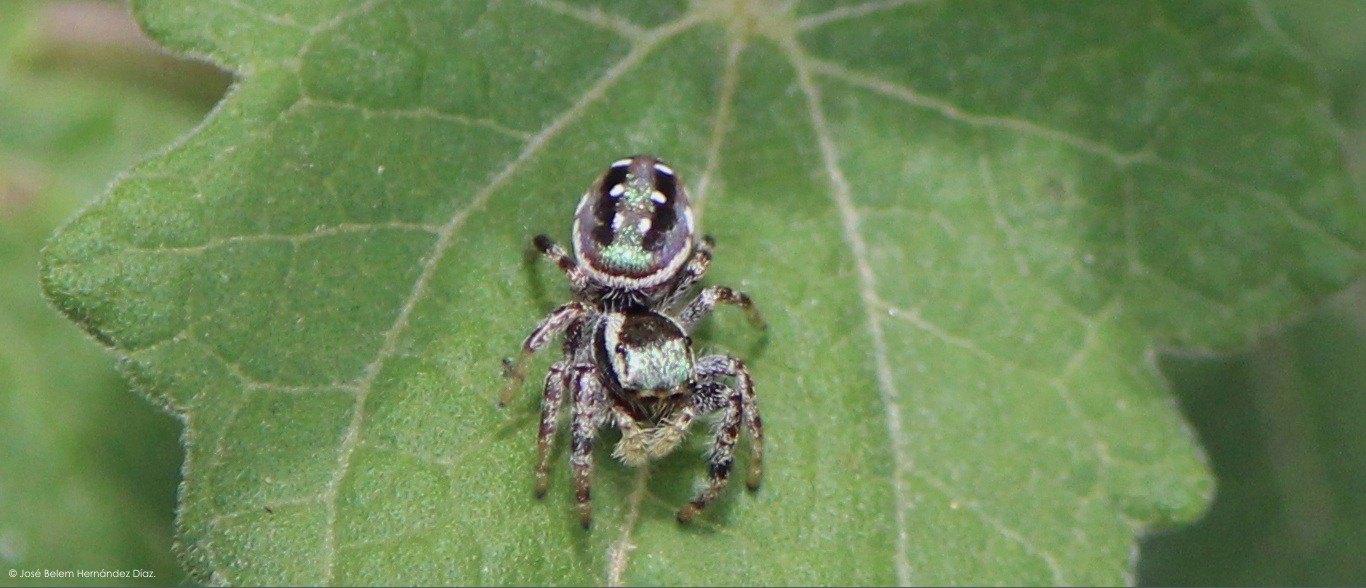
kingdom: Animalia
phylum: Arthropoda
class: Arachnida
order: Araneae
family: Salticidae
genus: Paraphidippus
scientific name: Paraphidippus aurantius
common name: Jumping spiders
